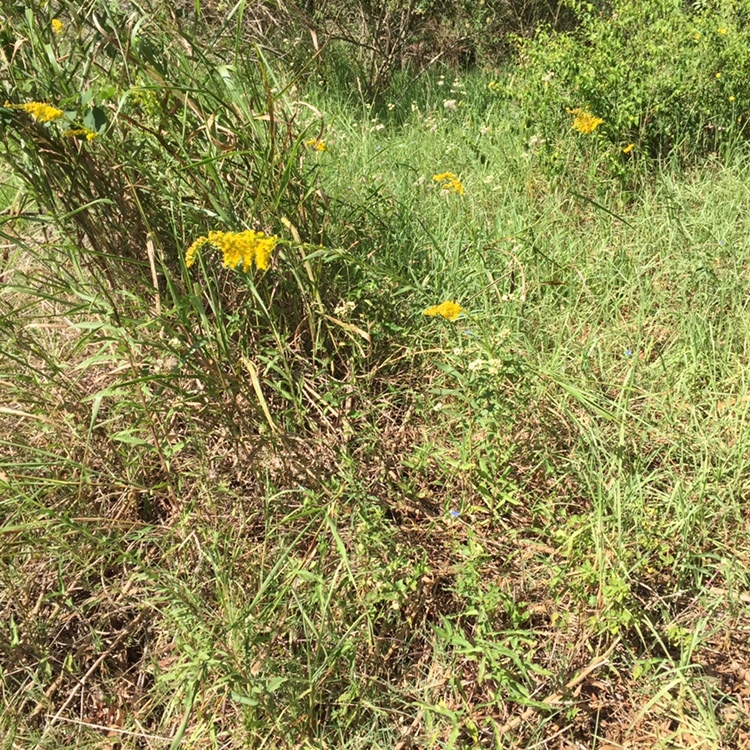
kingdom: Plantae
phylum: Tracheophyta
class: Magnoliopsida
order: Asterales
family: Asteraceae
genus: Solidago
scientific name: Solidago chilensis
